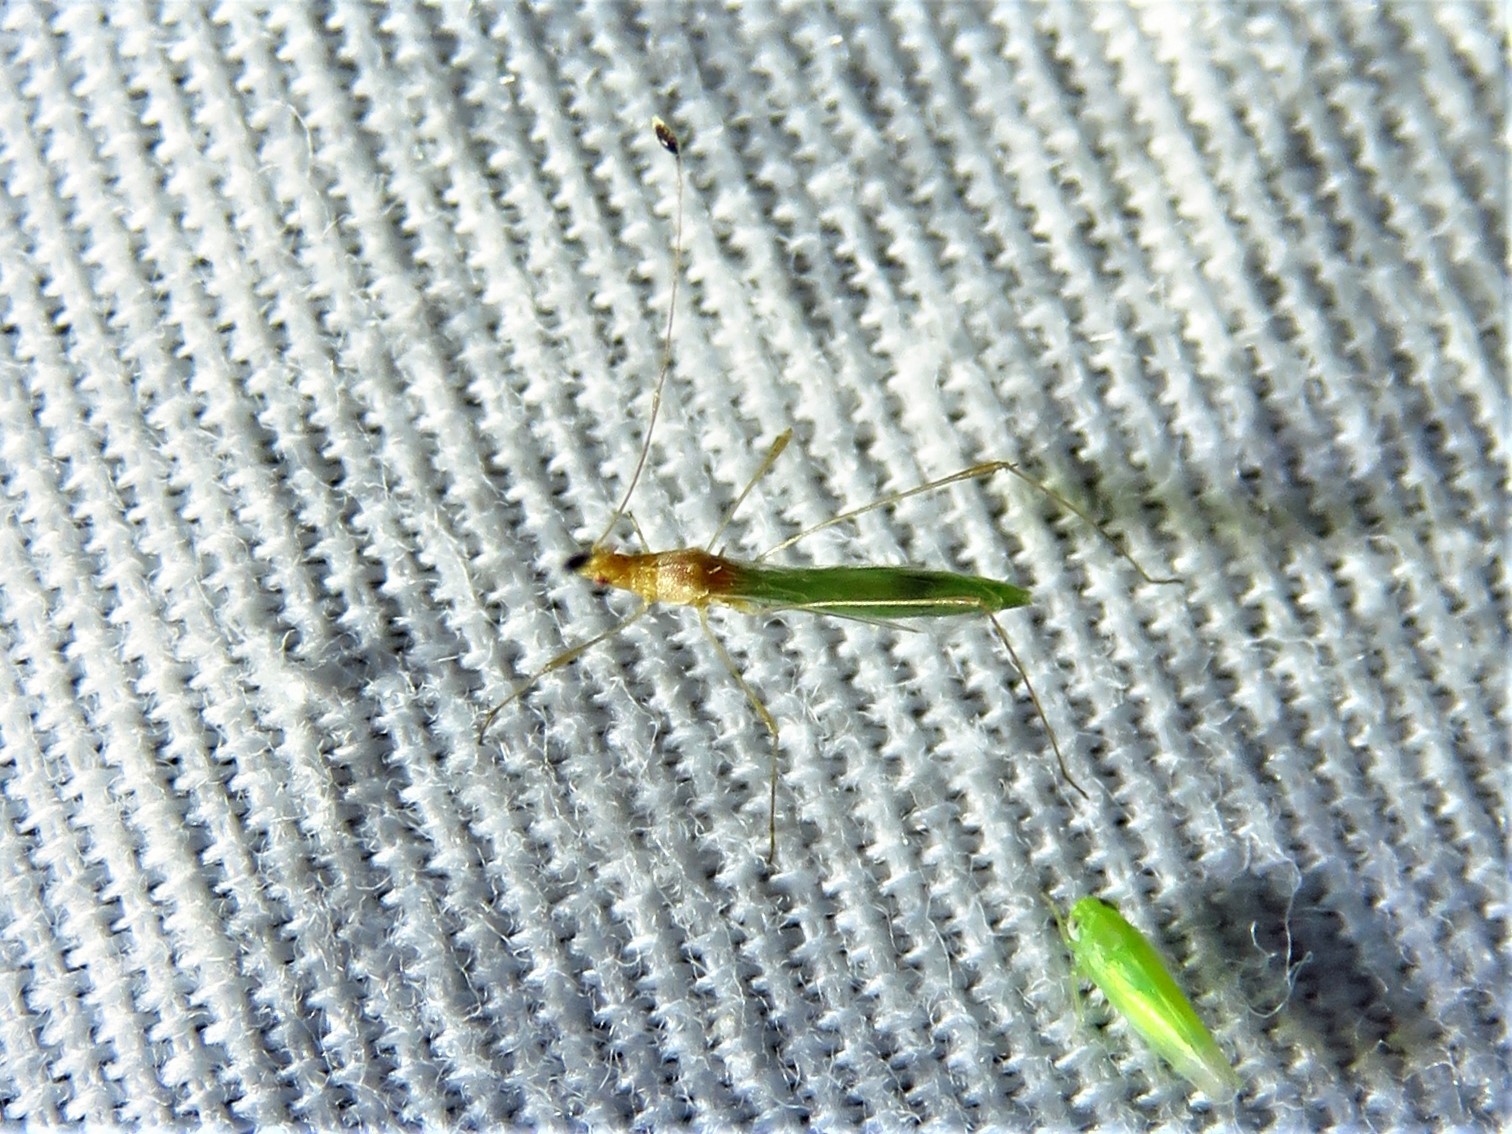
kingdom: Animalia
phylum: Arthropoda
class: Insecta
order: Hemiptera
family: Berytidae
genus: Metacanthus
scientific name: Metacanthus multispinus
